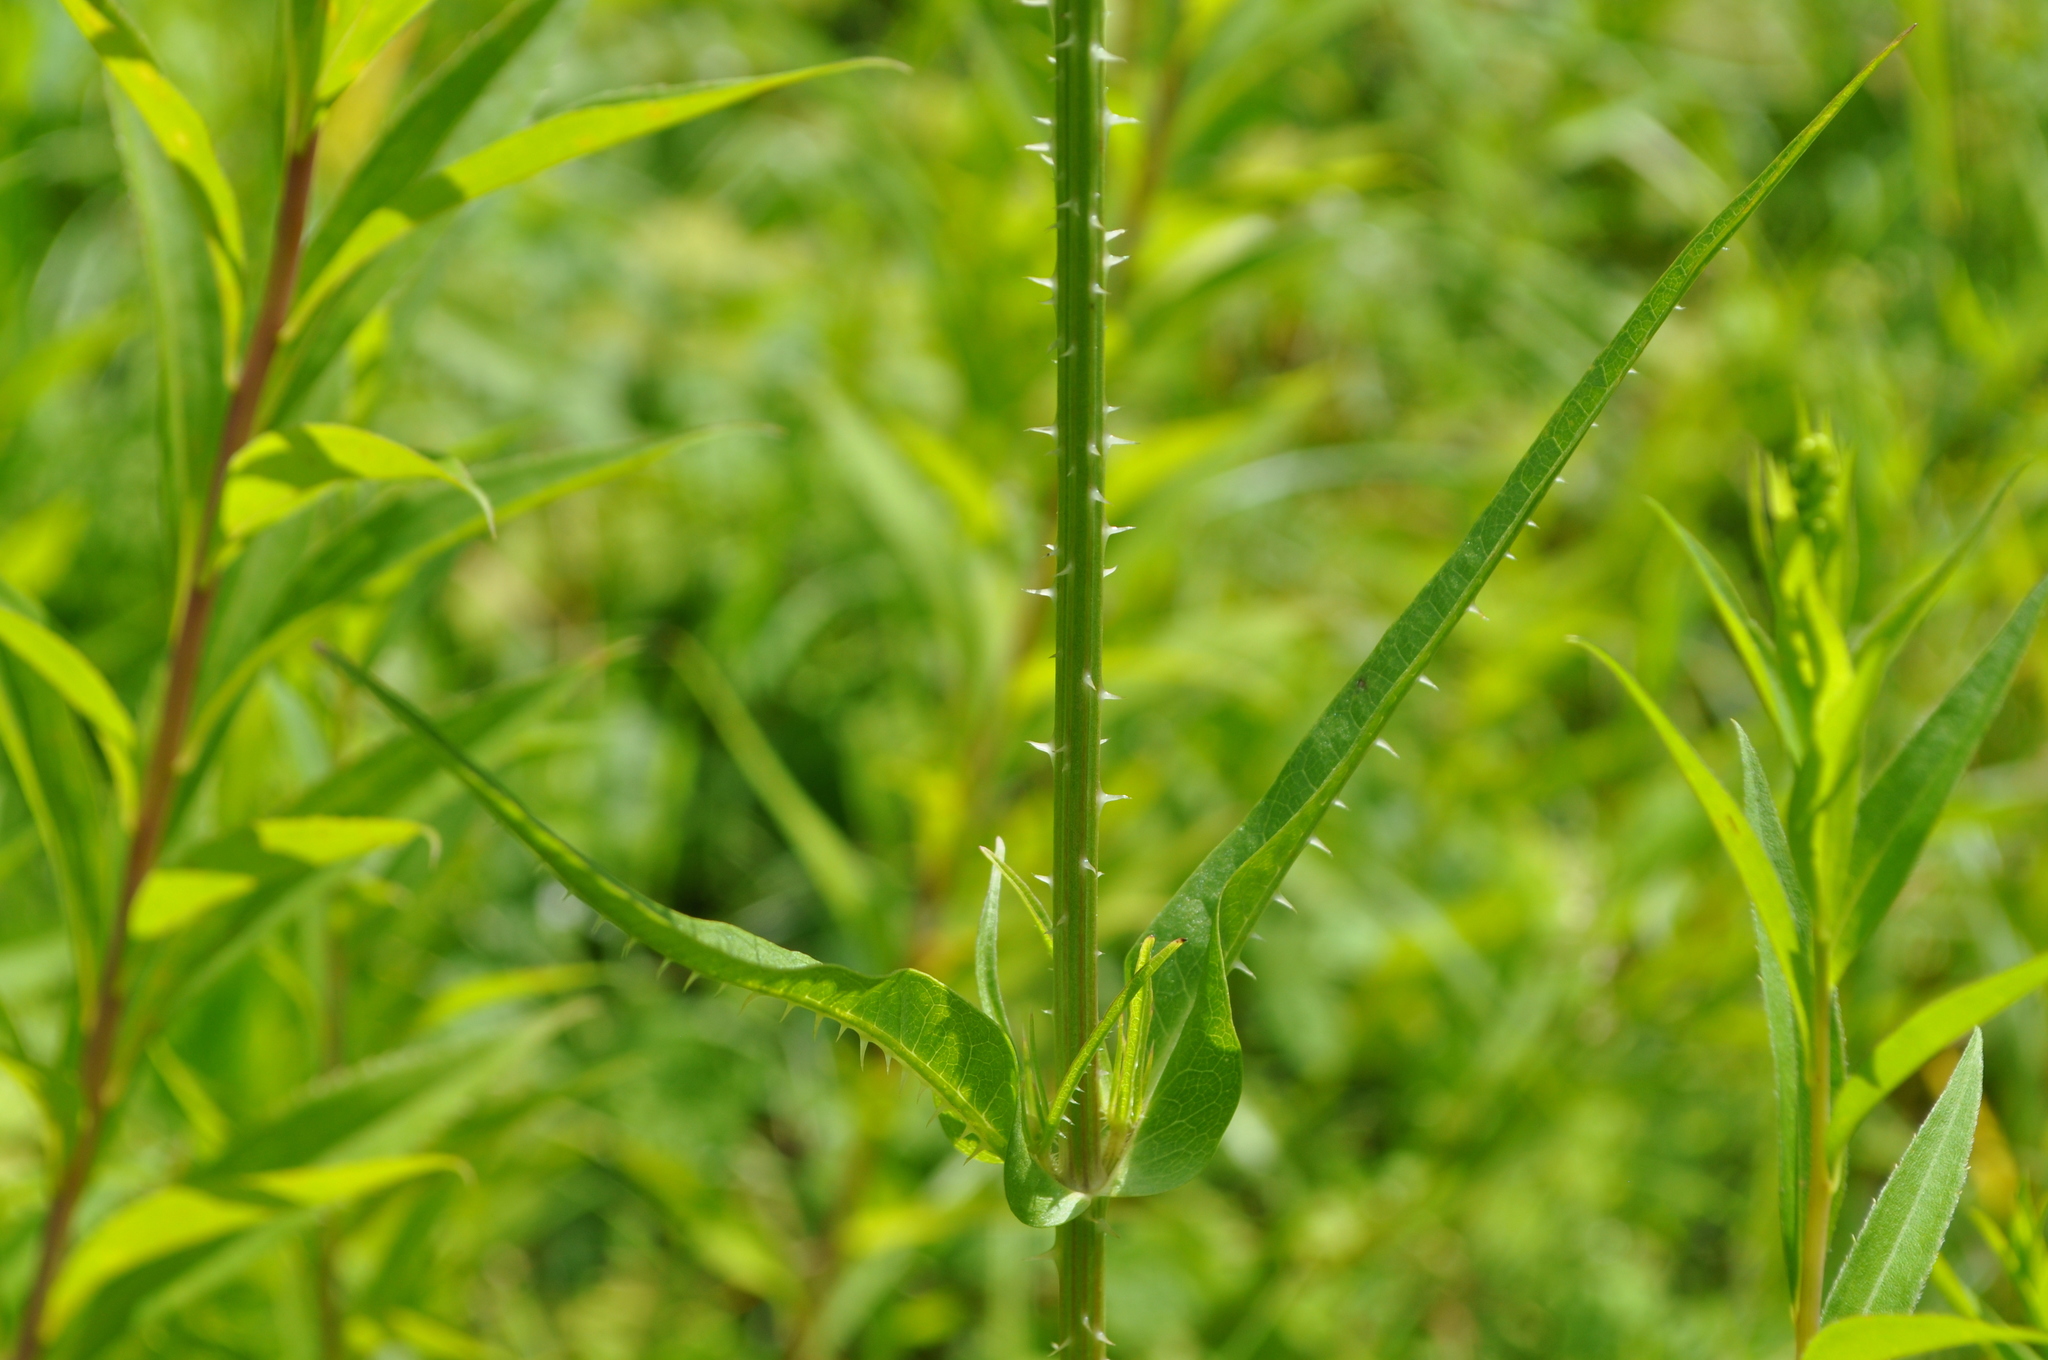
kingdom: Plantae
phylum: Tracheophyta
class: Magnoliopsida
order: Dipsacales
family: Caprifoliaceae
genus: Dipsacus
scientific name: Dipsacus fullonum
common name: Teasel
